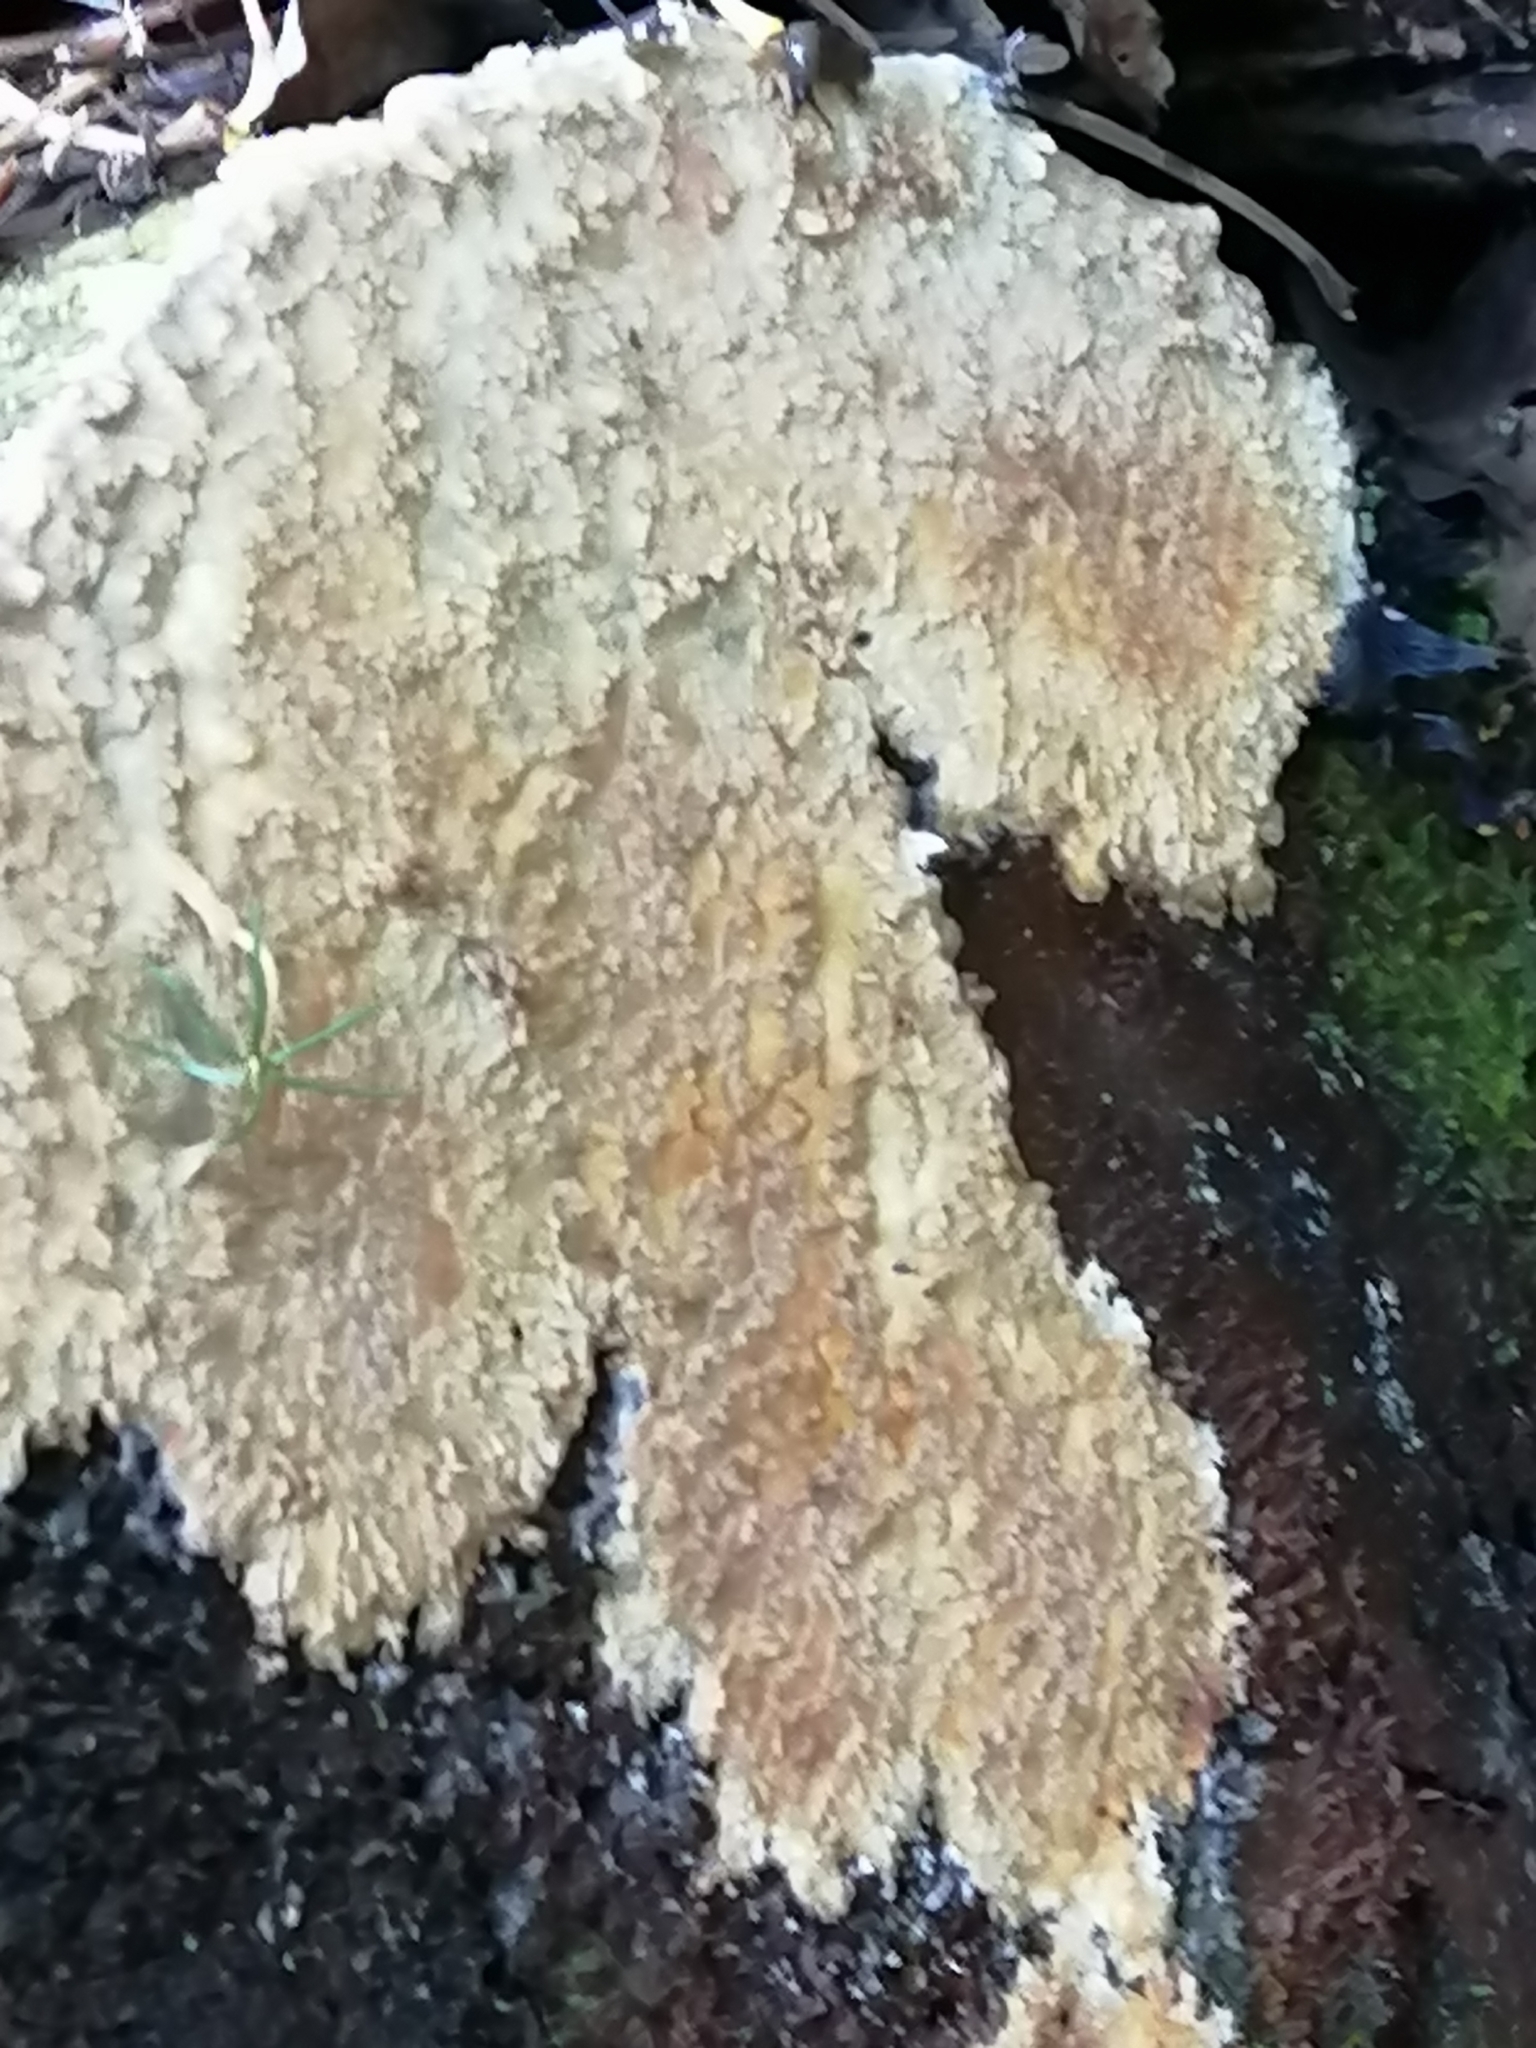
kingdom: Fungi
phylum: Basidiomycota
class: Agaricomycetes
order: Agaricales
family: Cystostereaceae
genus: Cystostereum
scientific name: Cystostereum murrayi
